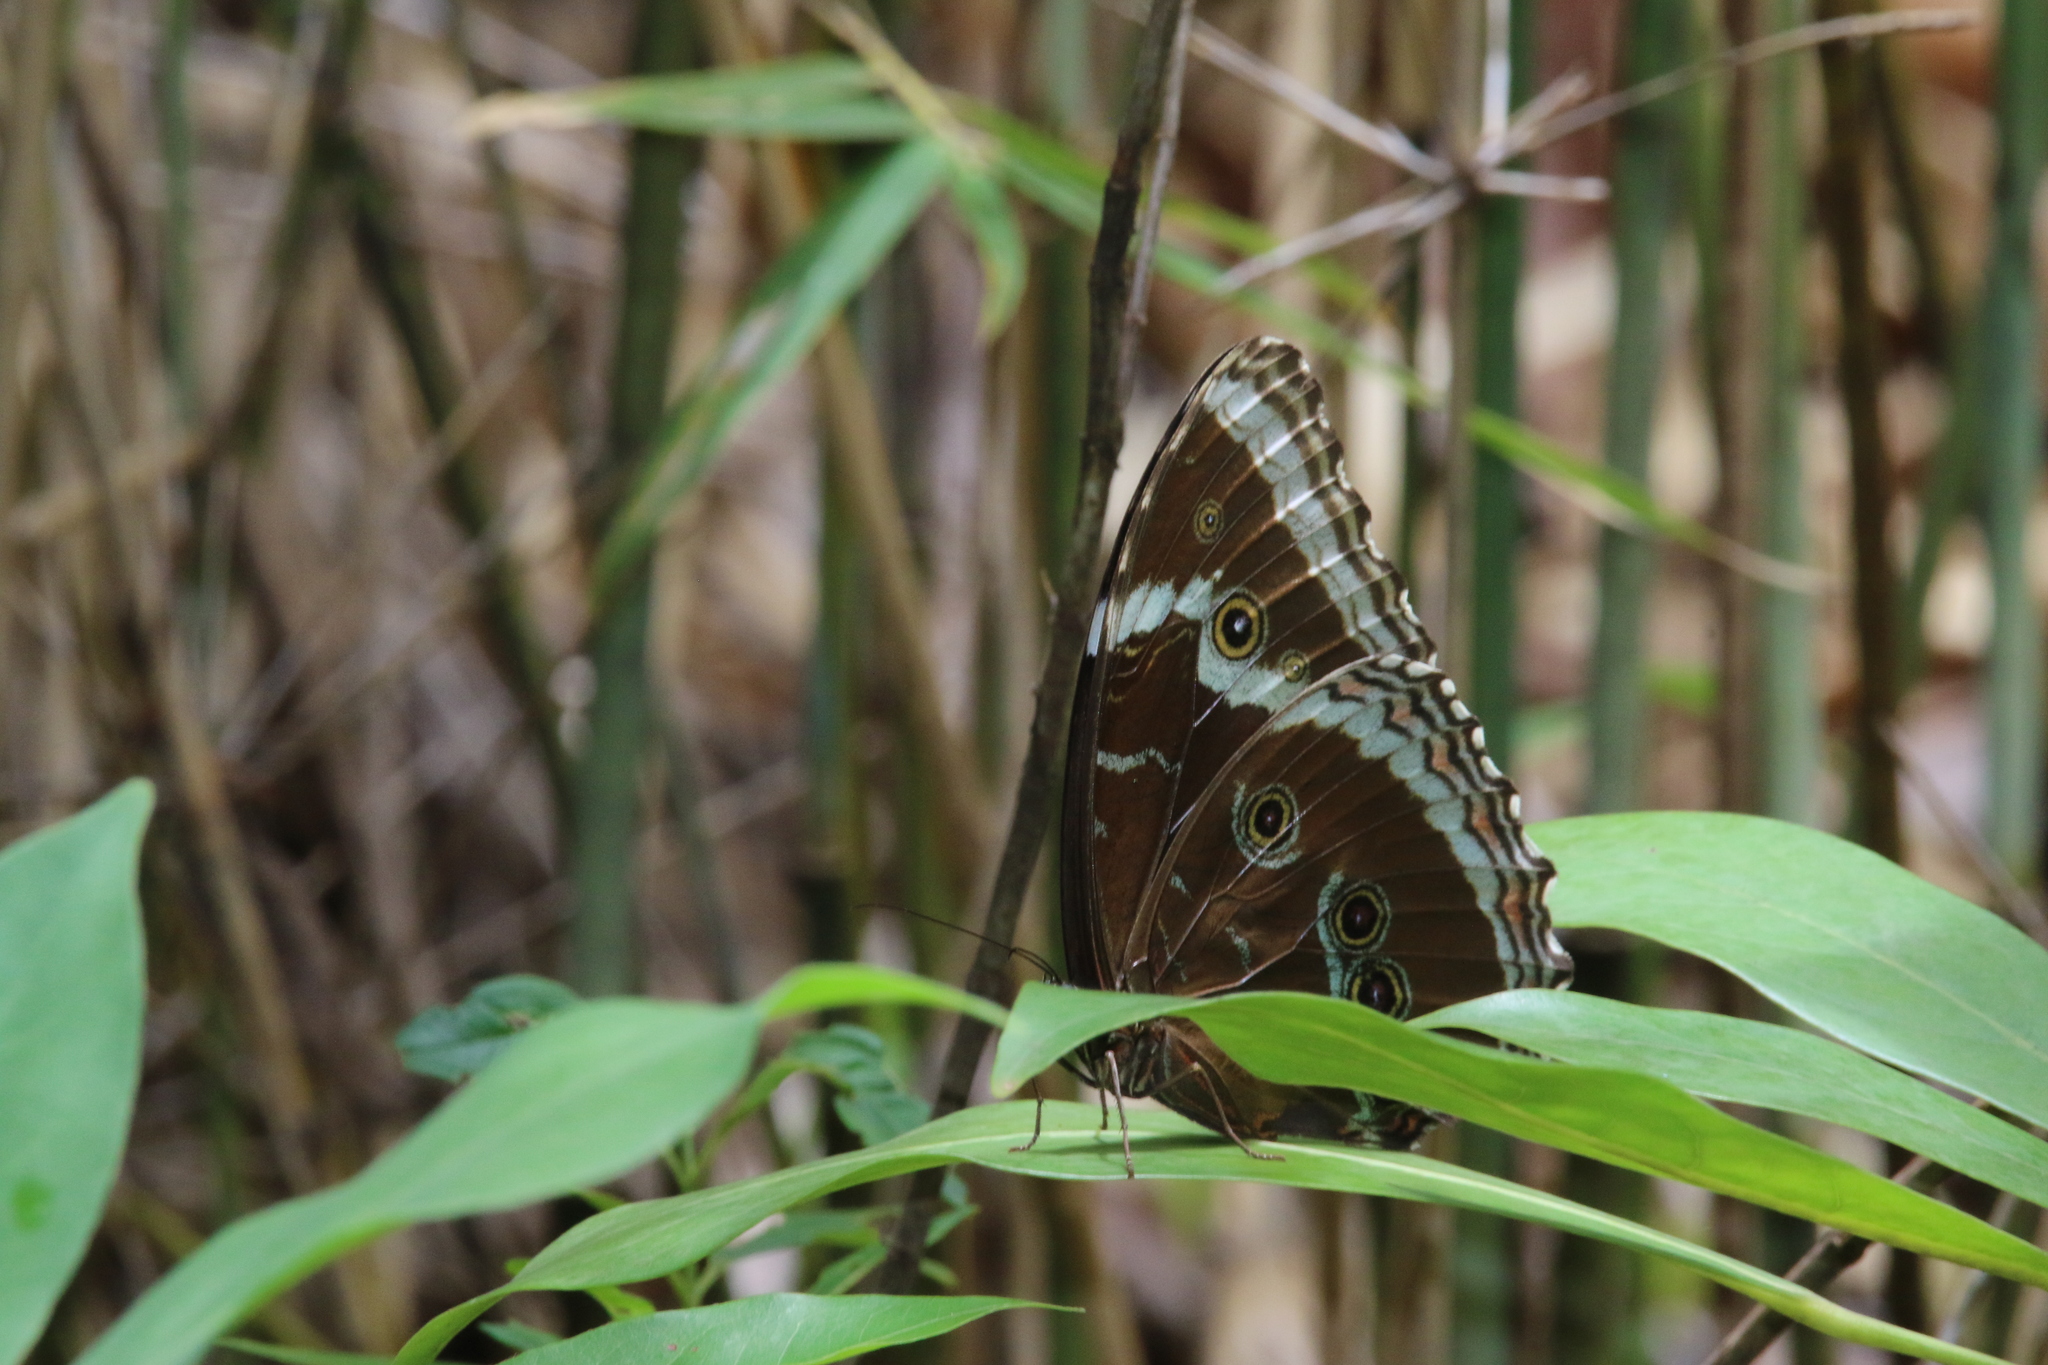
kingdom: Animalia
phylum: Arthropoda
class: Insecta
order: Lepidoptera
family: Nymphalidae
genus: Morpho
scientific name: Morpho helenor
